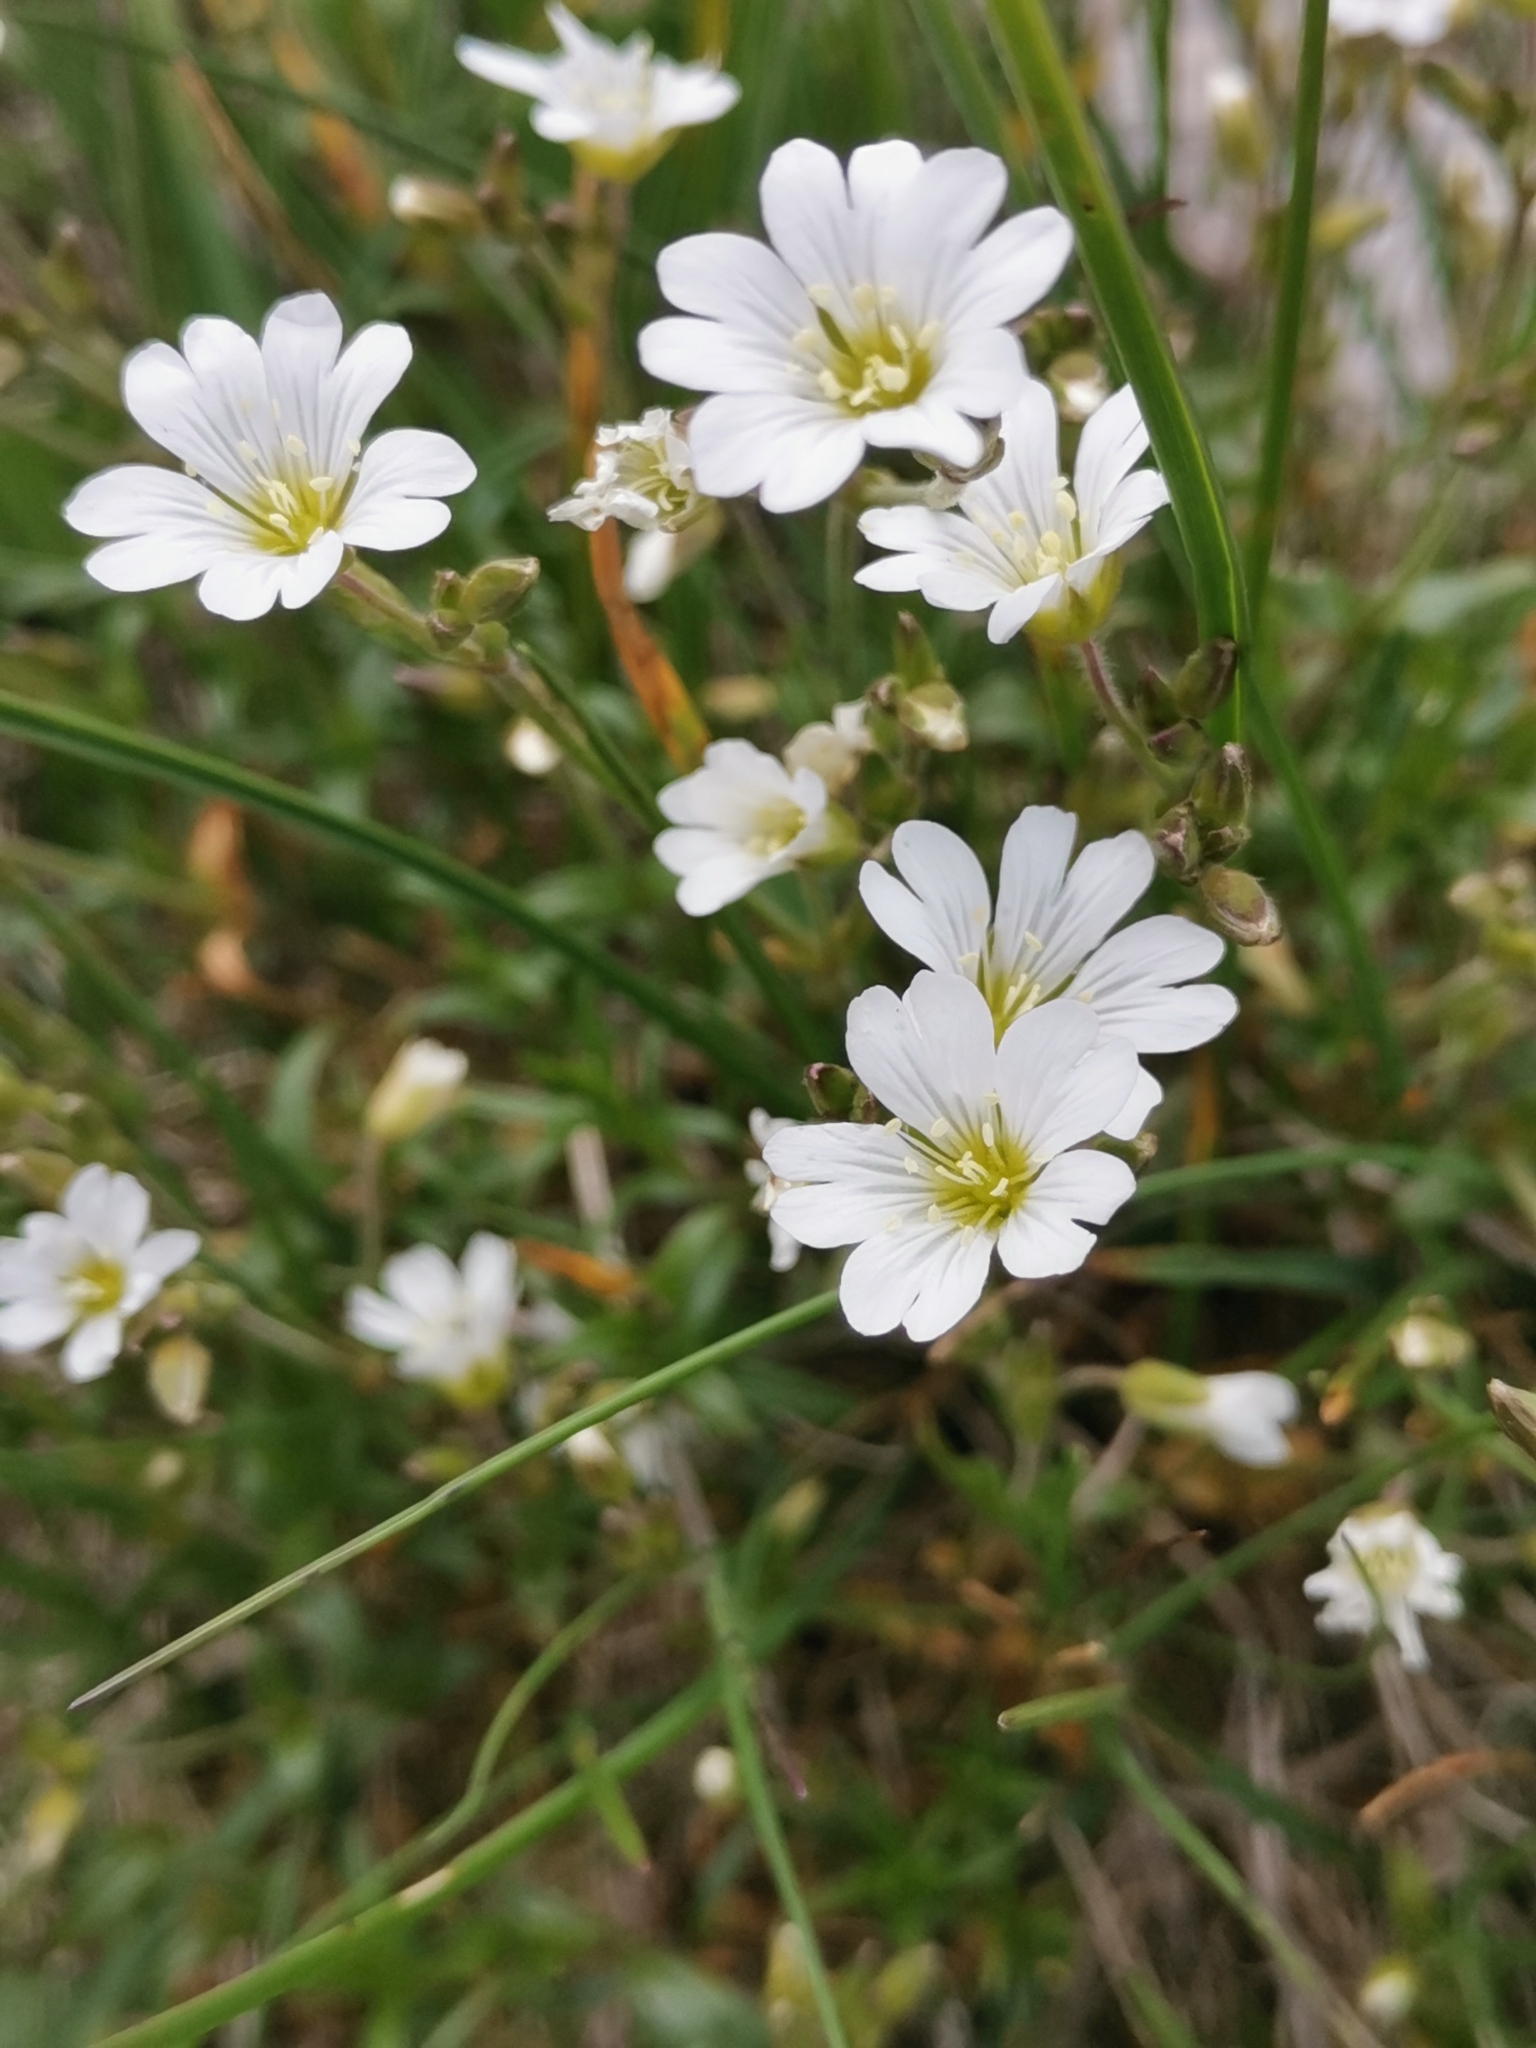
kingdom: Plantae
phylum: Tracheophyta
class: Magnoliopsida
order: Caryophyllales
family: Caryophyllaceae
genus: Cerastium
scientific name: Cerastium elongatum
